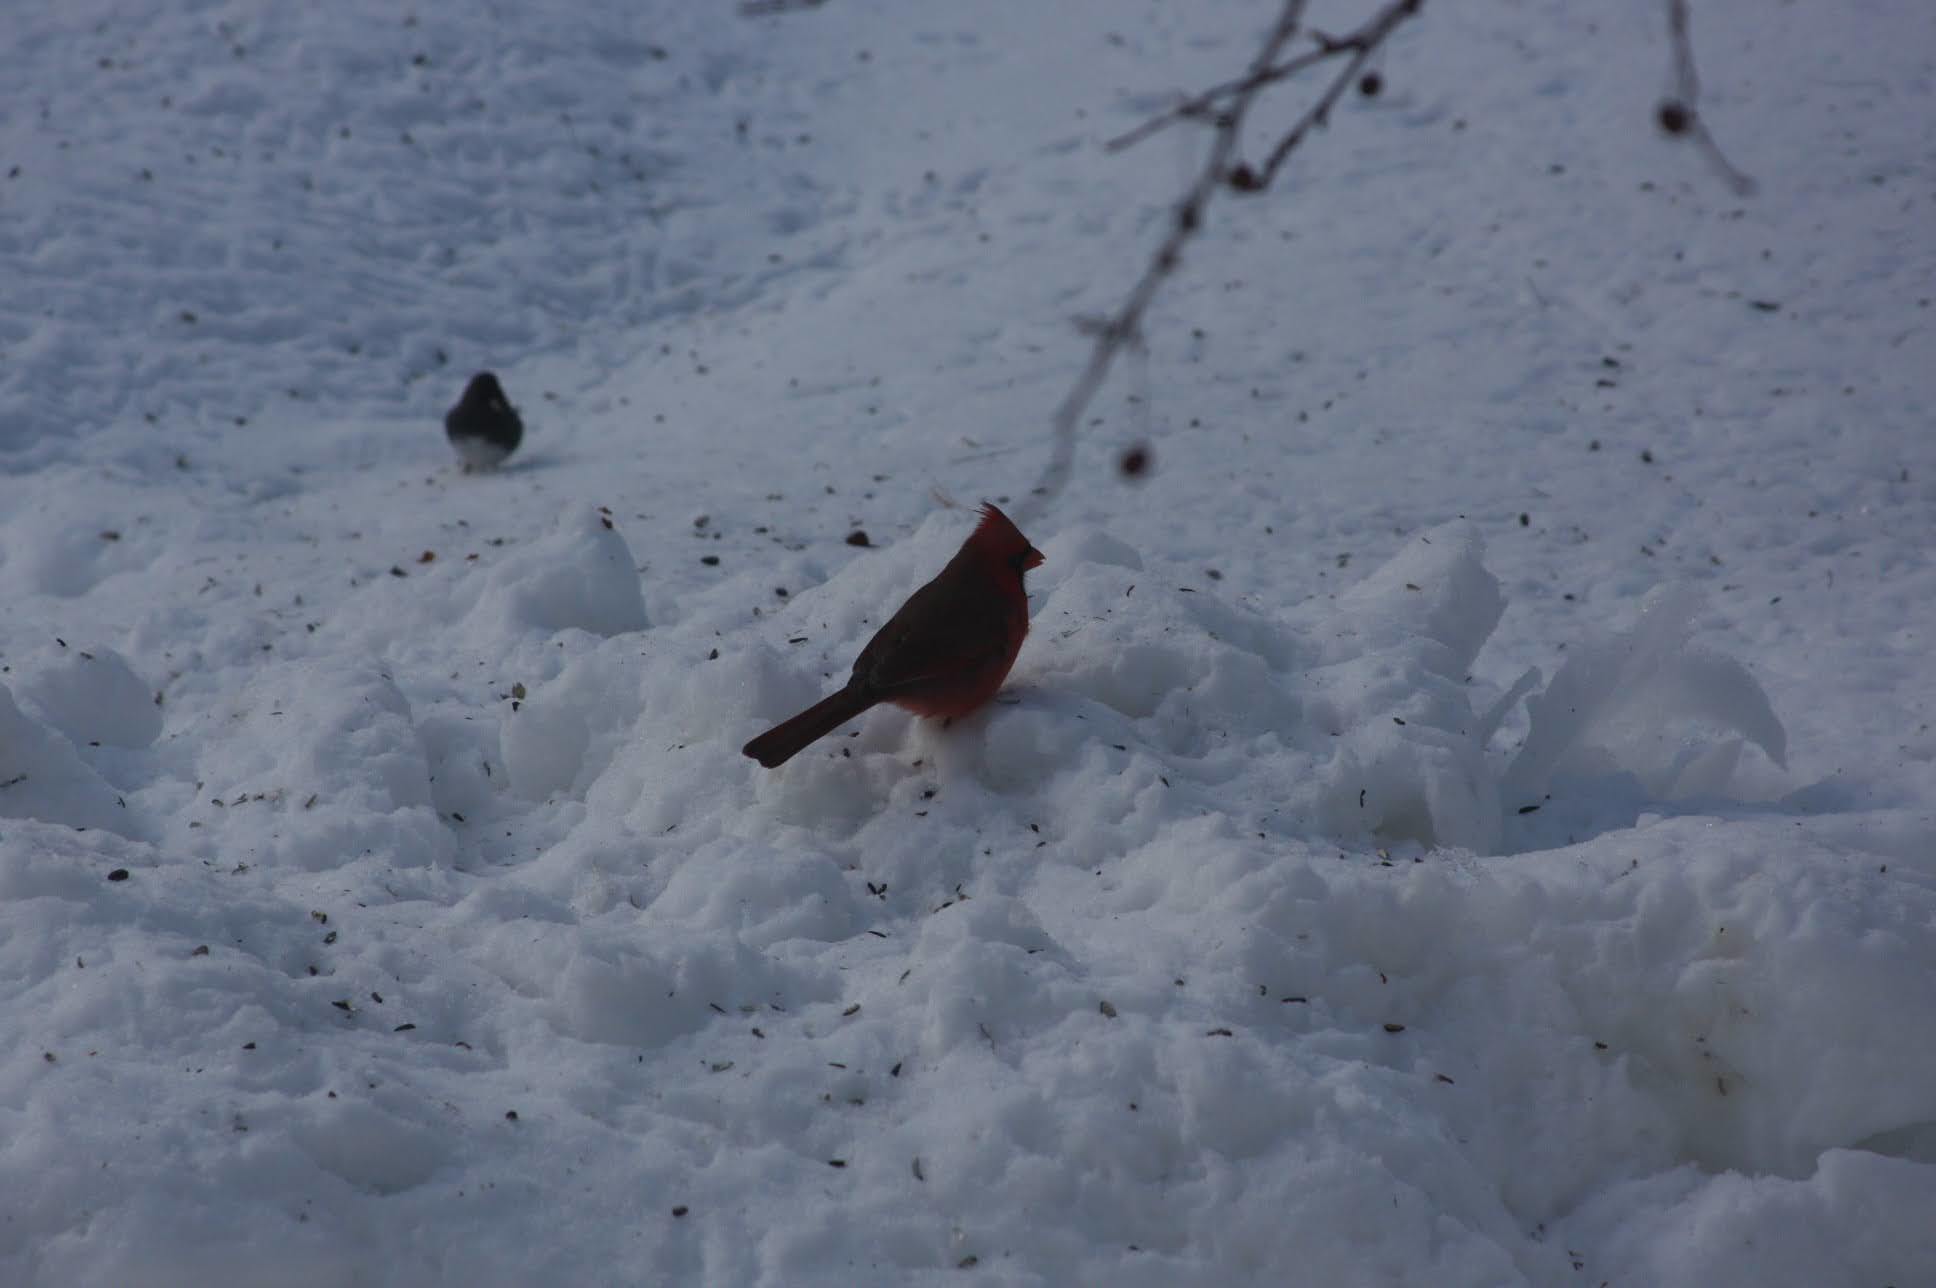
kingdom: Animalia
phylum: Chordata
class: Aves
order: Passeriformes
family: Cardinalidae
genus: Cardinalis
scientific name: Cardinalis cardinalis
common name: Northern cardinal
